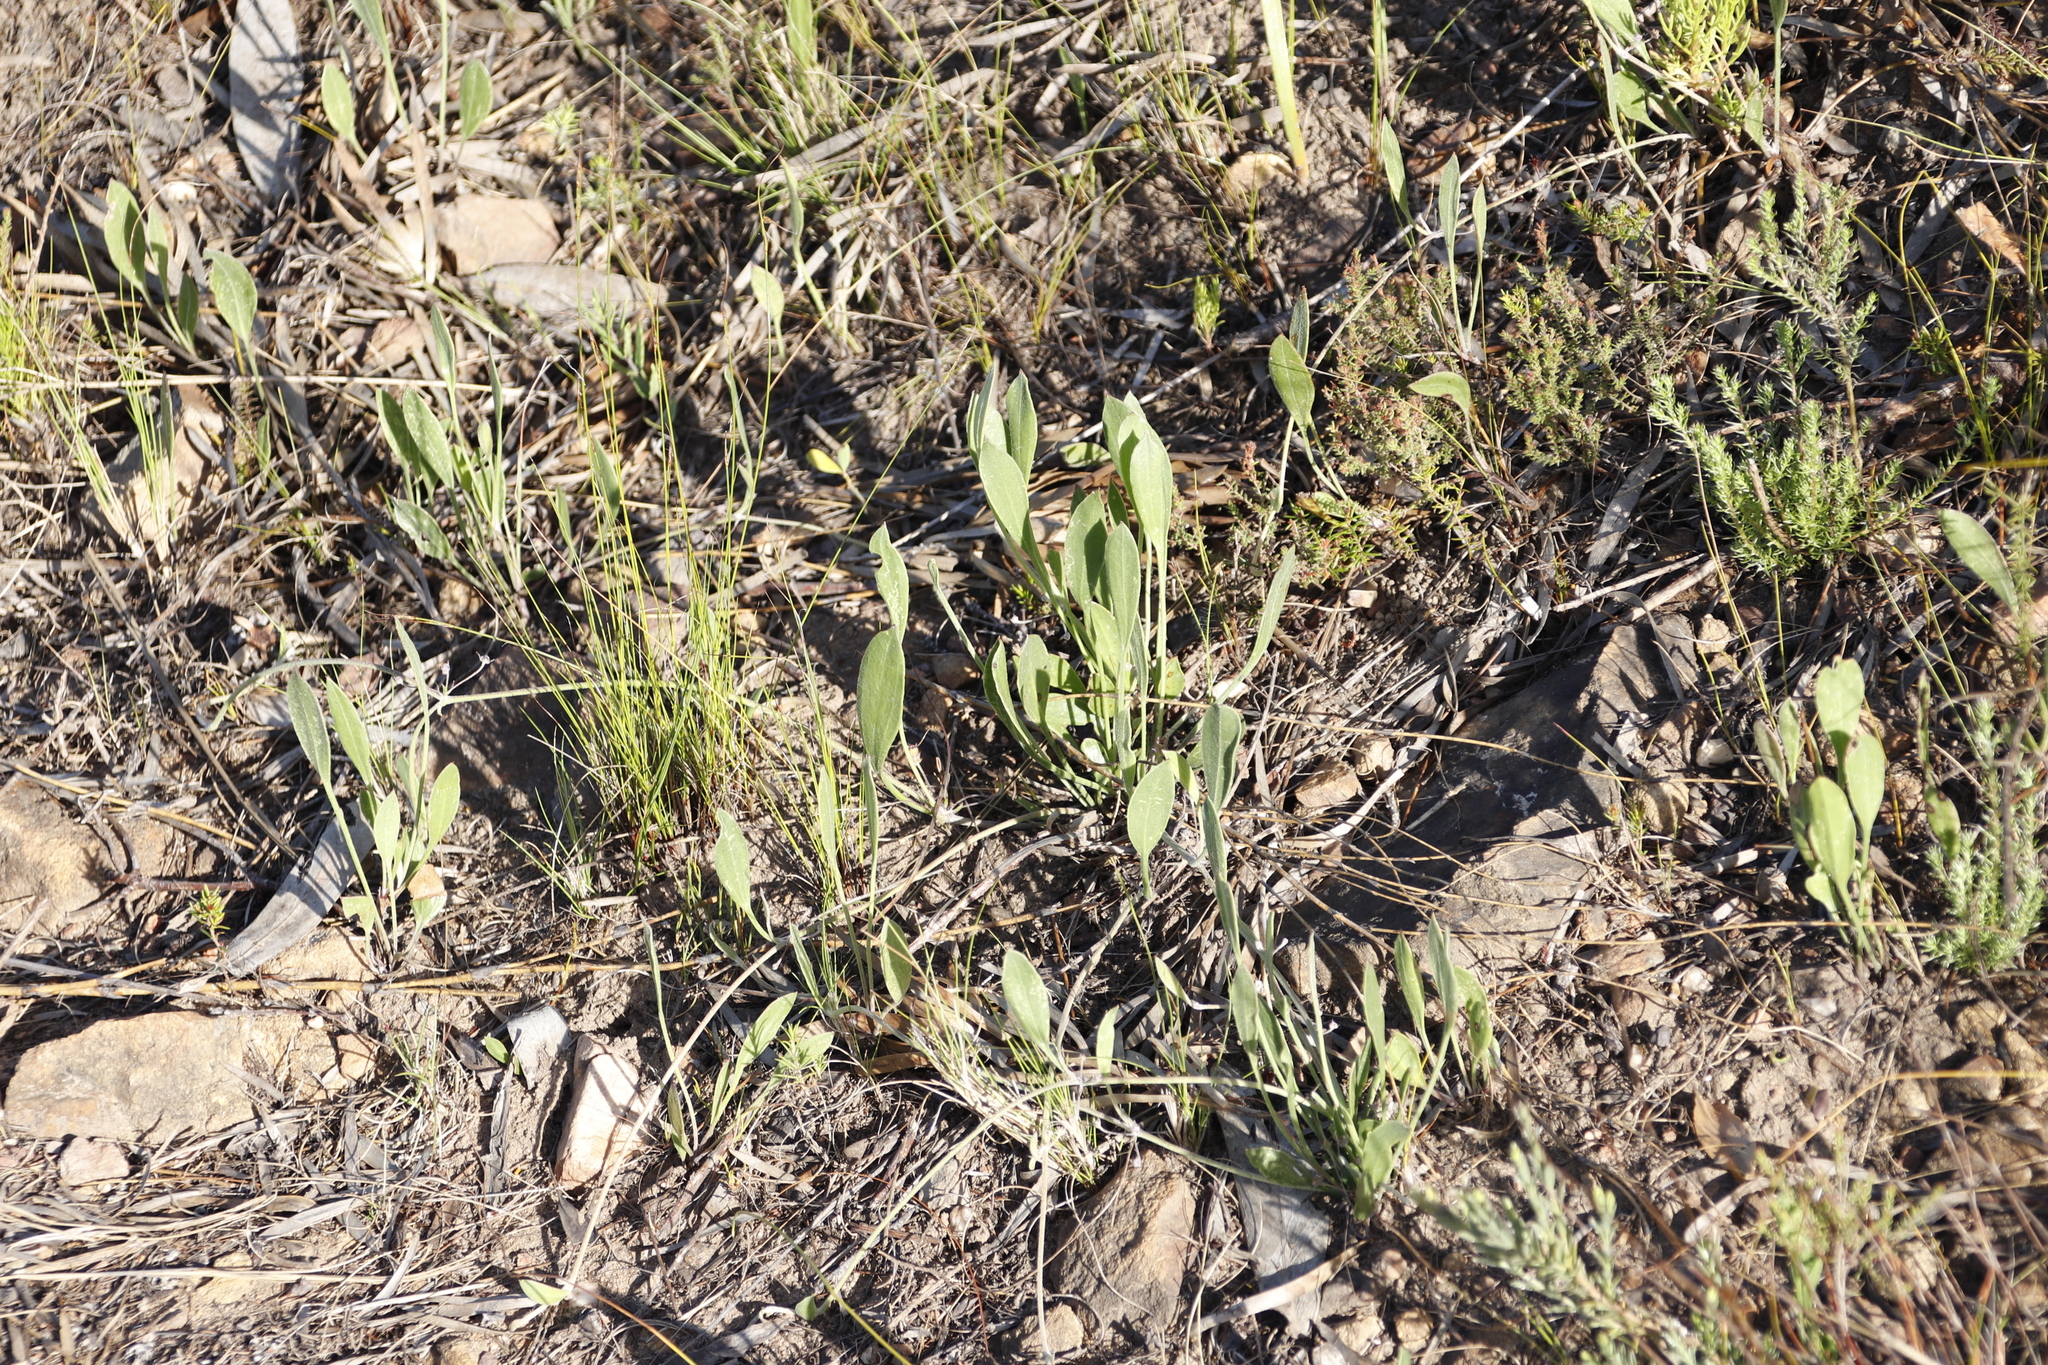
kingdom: Plantae
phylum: Tracheophyta
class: Magnoliopsida
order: Apiales
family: Apiaceae
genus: Centella
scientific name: Centella dolichocarpa
